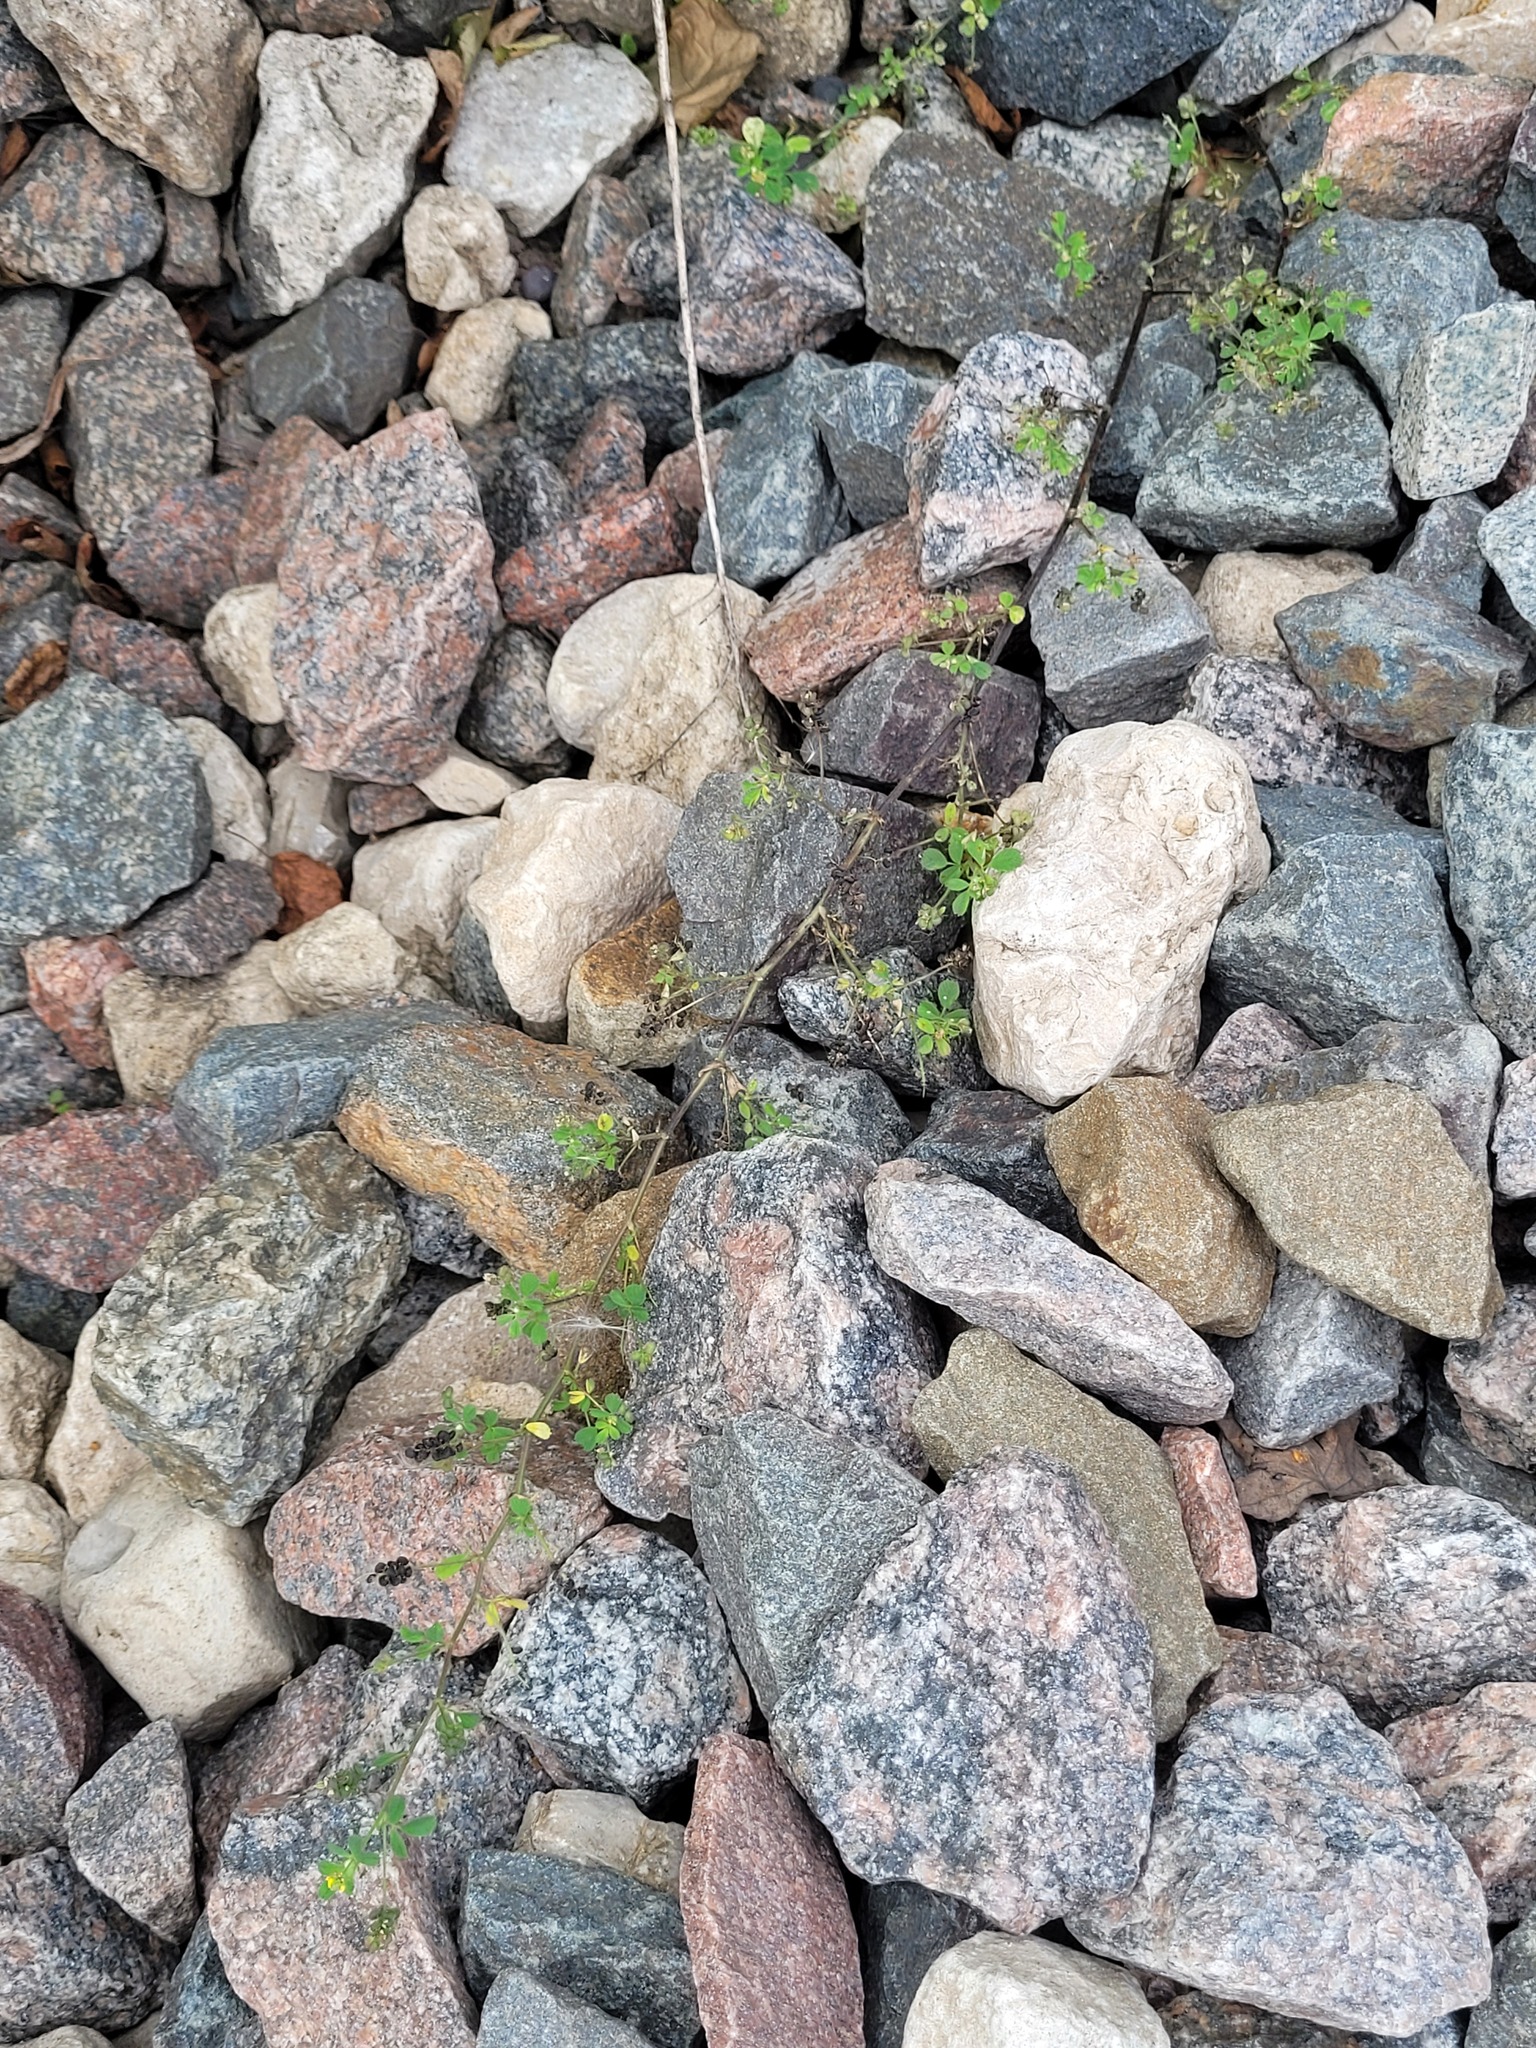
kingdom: Plantae
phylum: Tracheophyta
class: Magnoliopsida
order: Fabales
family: Fabaceae
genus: Medicago
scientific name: Medicago lupulina
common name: Black medick
